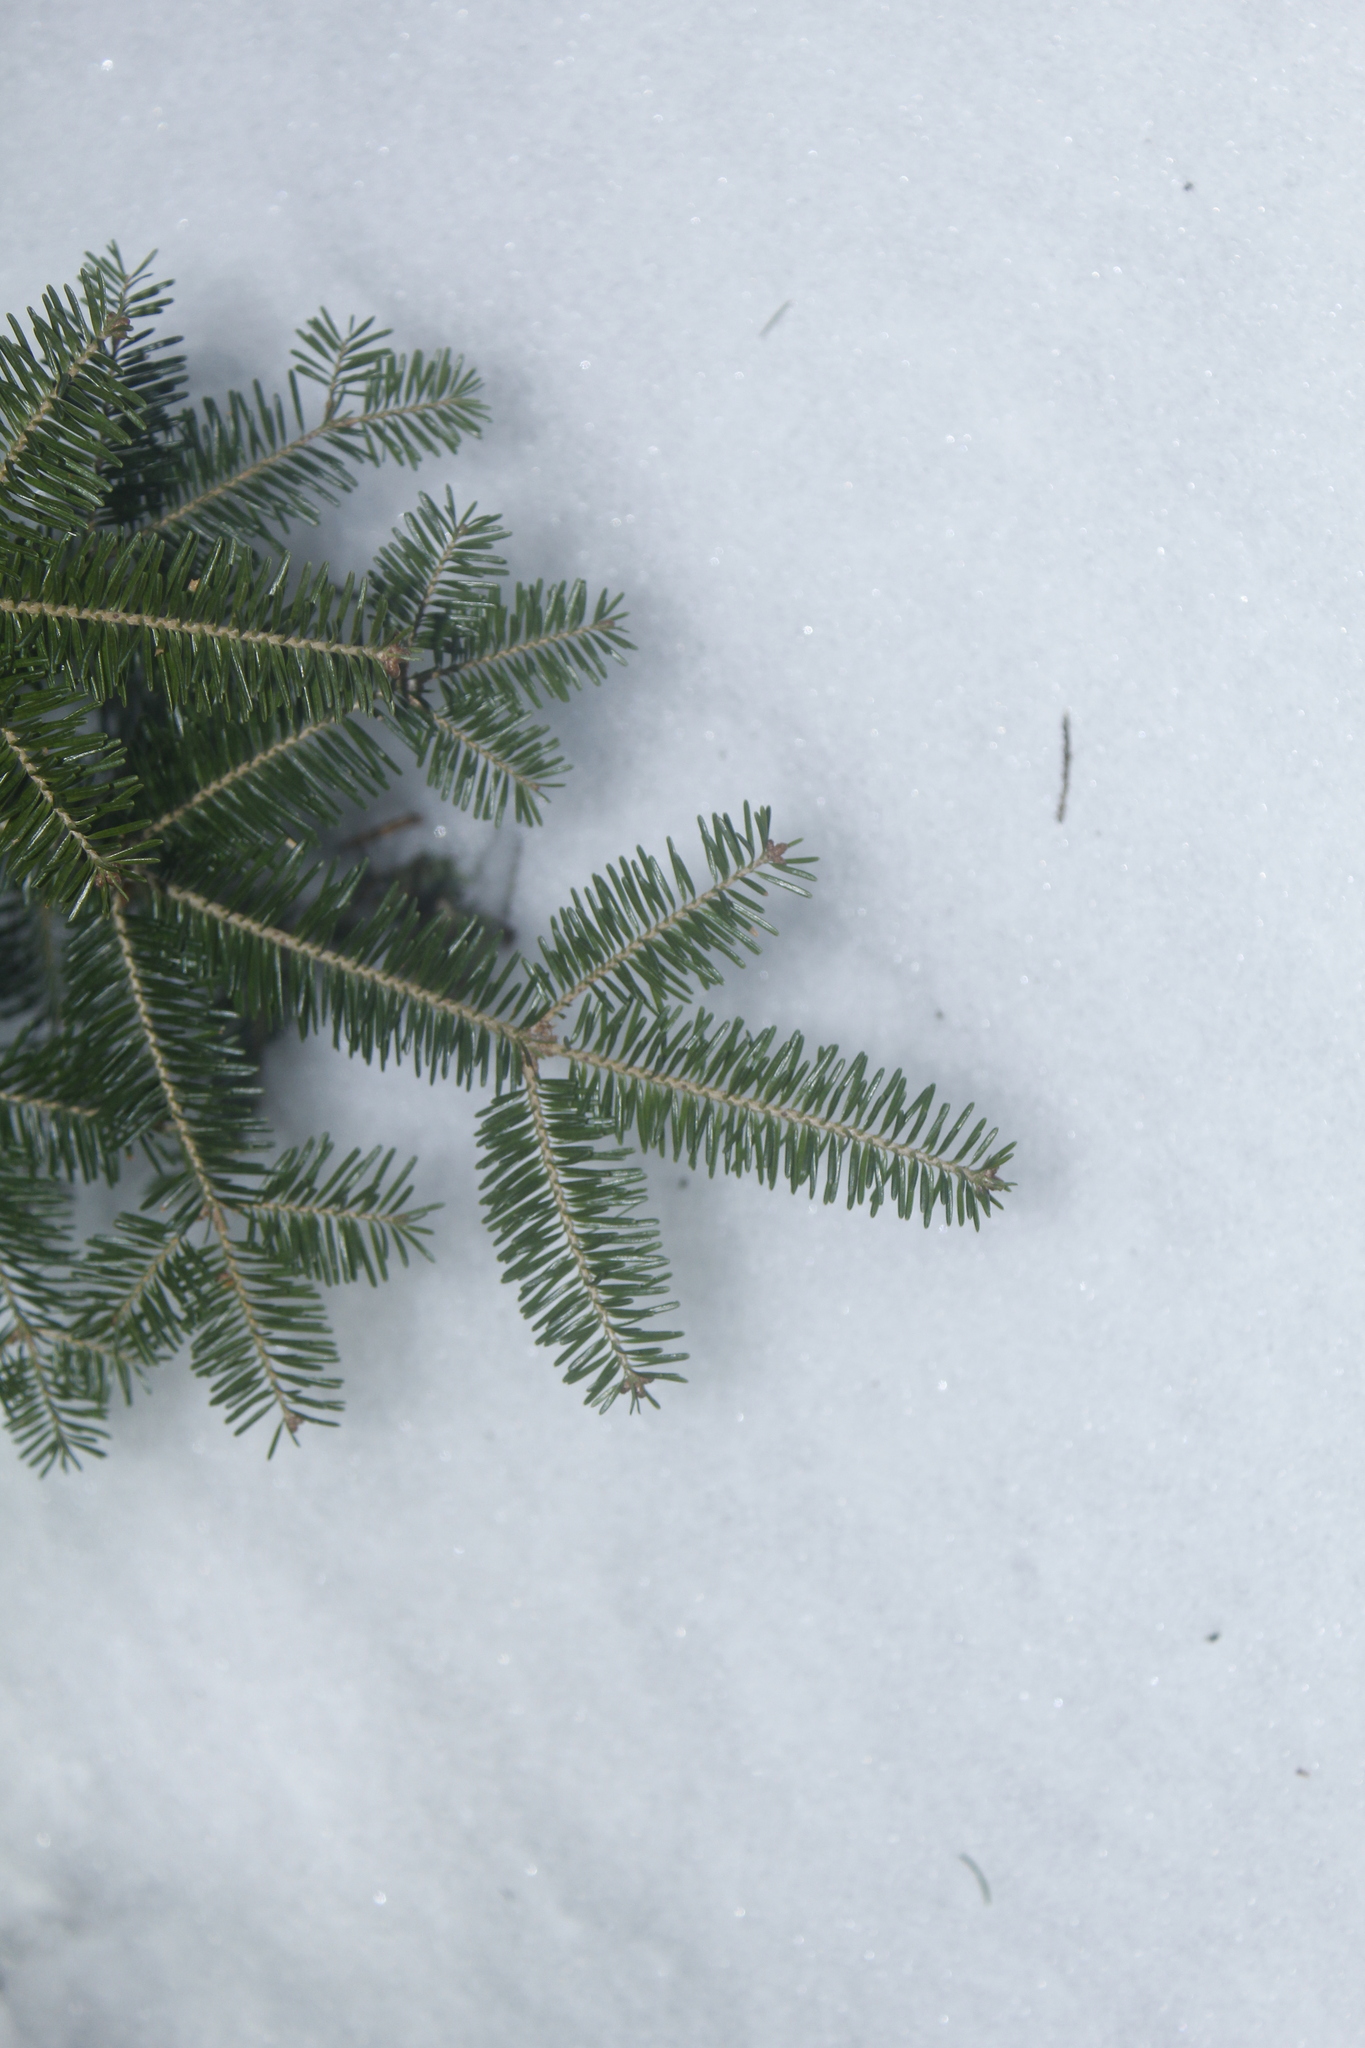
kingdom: Plantae
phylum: Tracheophyta
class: Pinopsida
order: Pinales
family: Pinaceae
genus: Abies
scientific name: Abies balsamea
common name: Balsam fir
